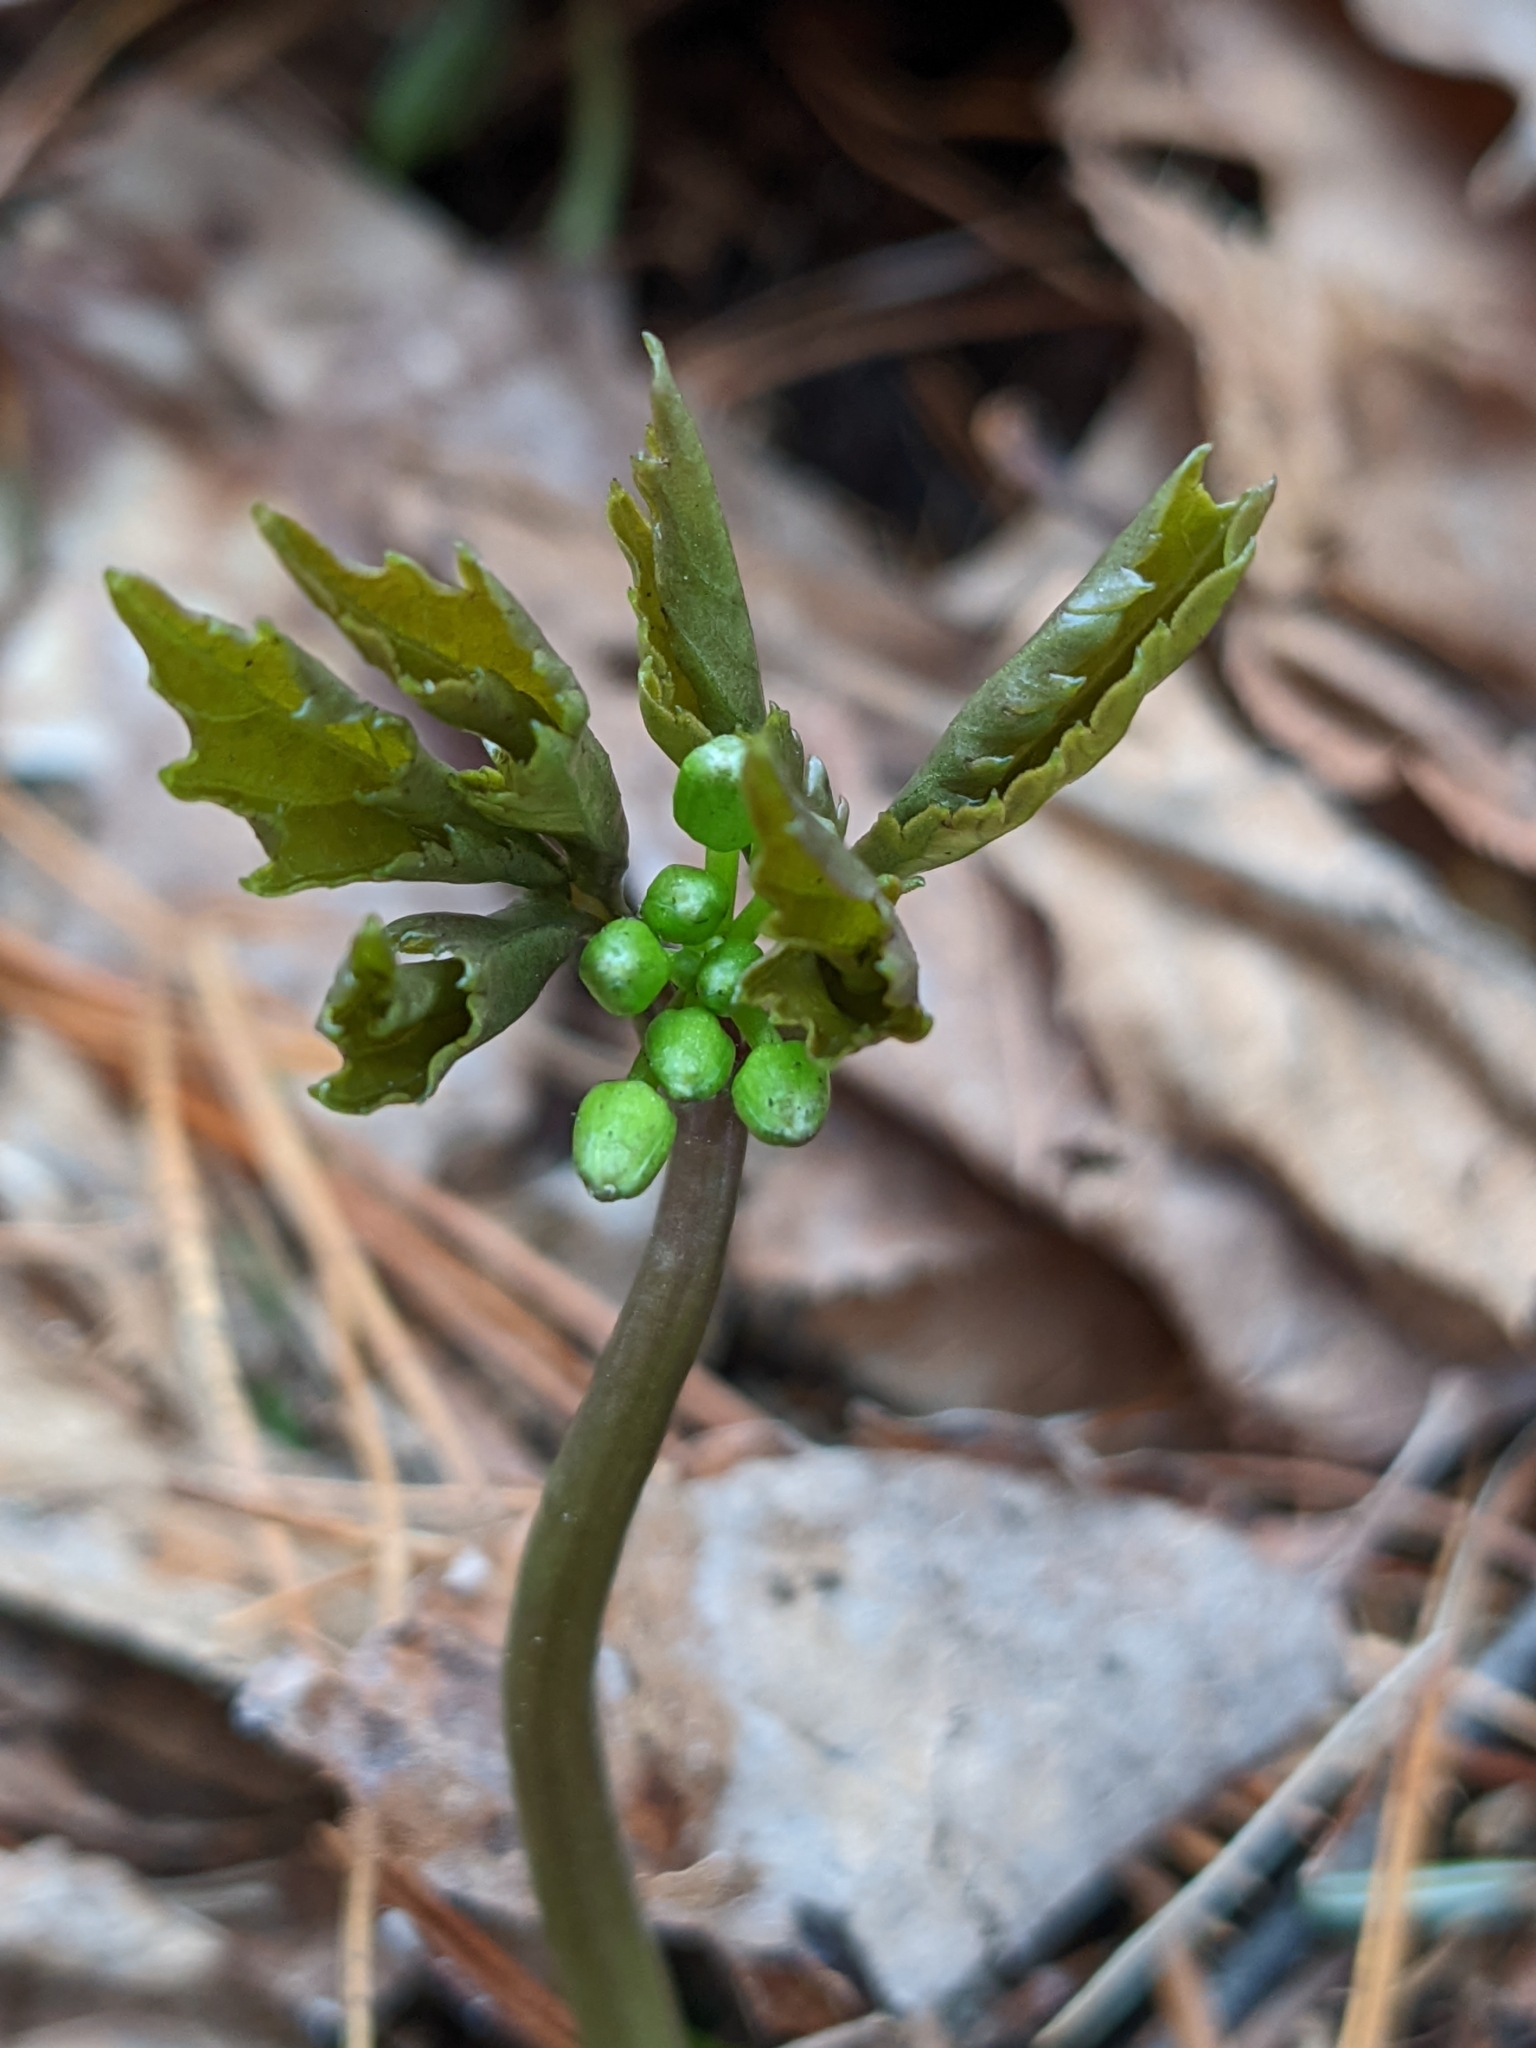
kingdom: Plantae
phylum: Tracheophyta
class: Magnoliopsida
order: Brassicales
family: Brassicaceae
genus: Cardamine
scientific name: Cardamine diphylla
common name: Broad-leaved toothwort
